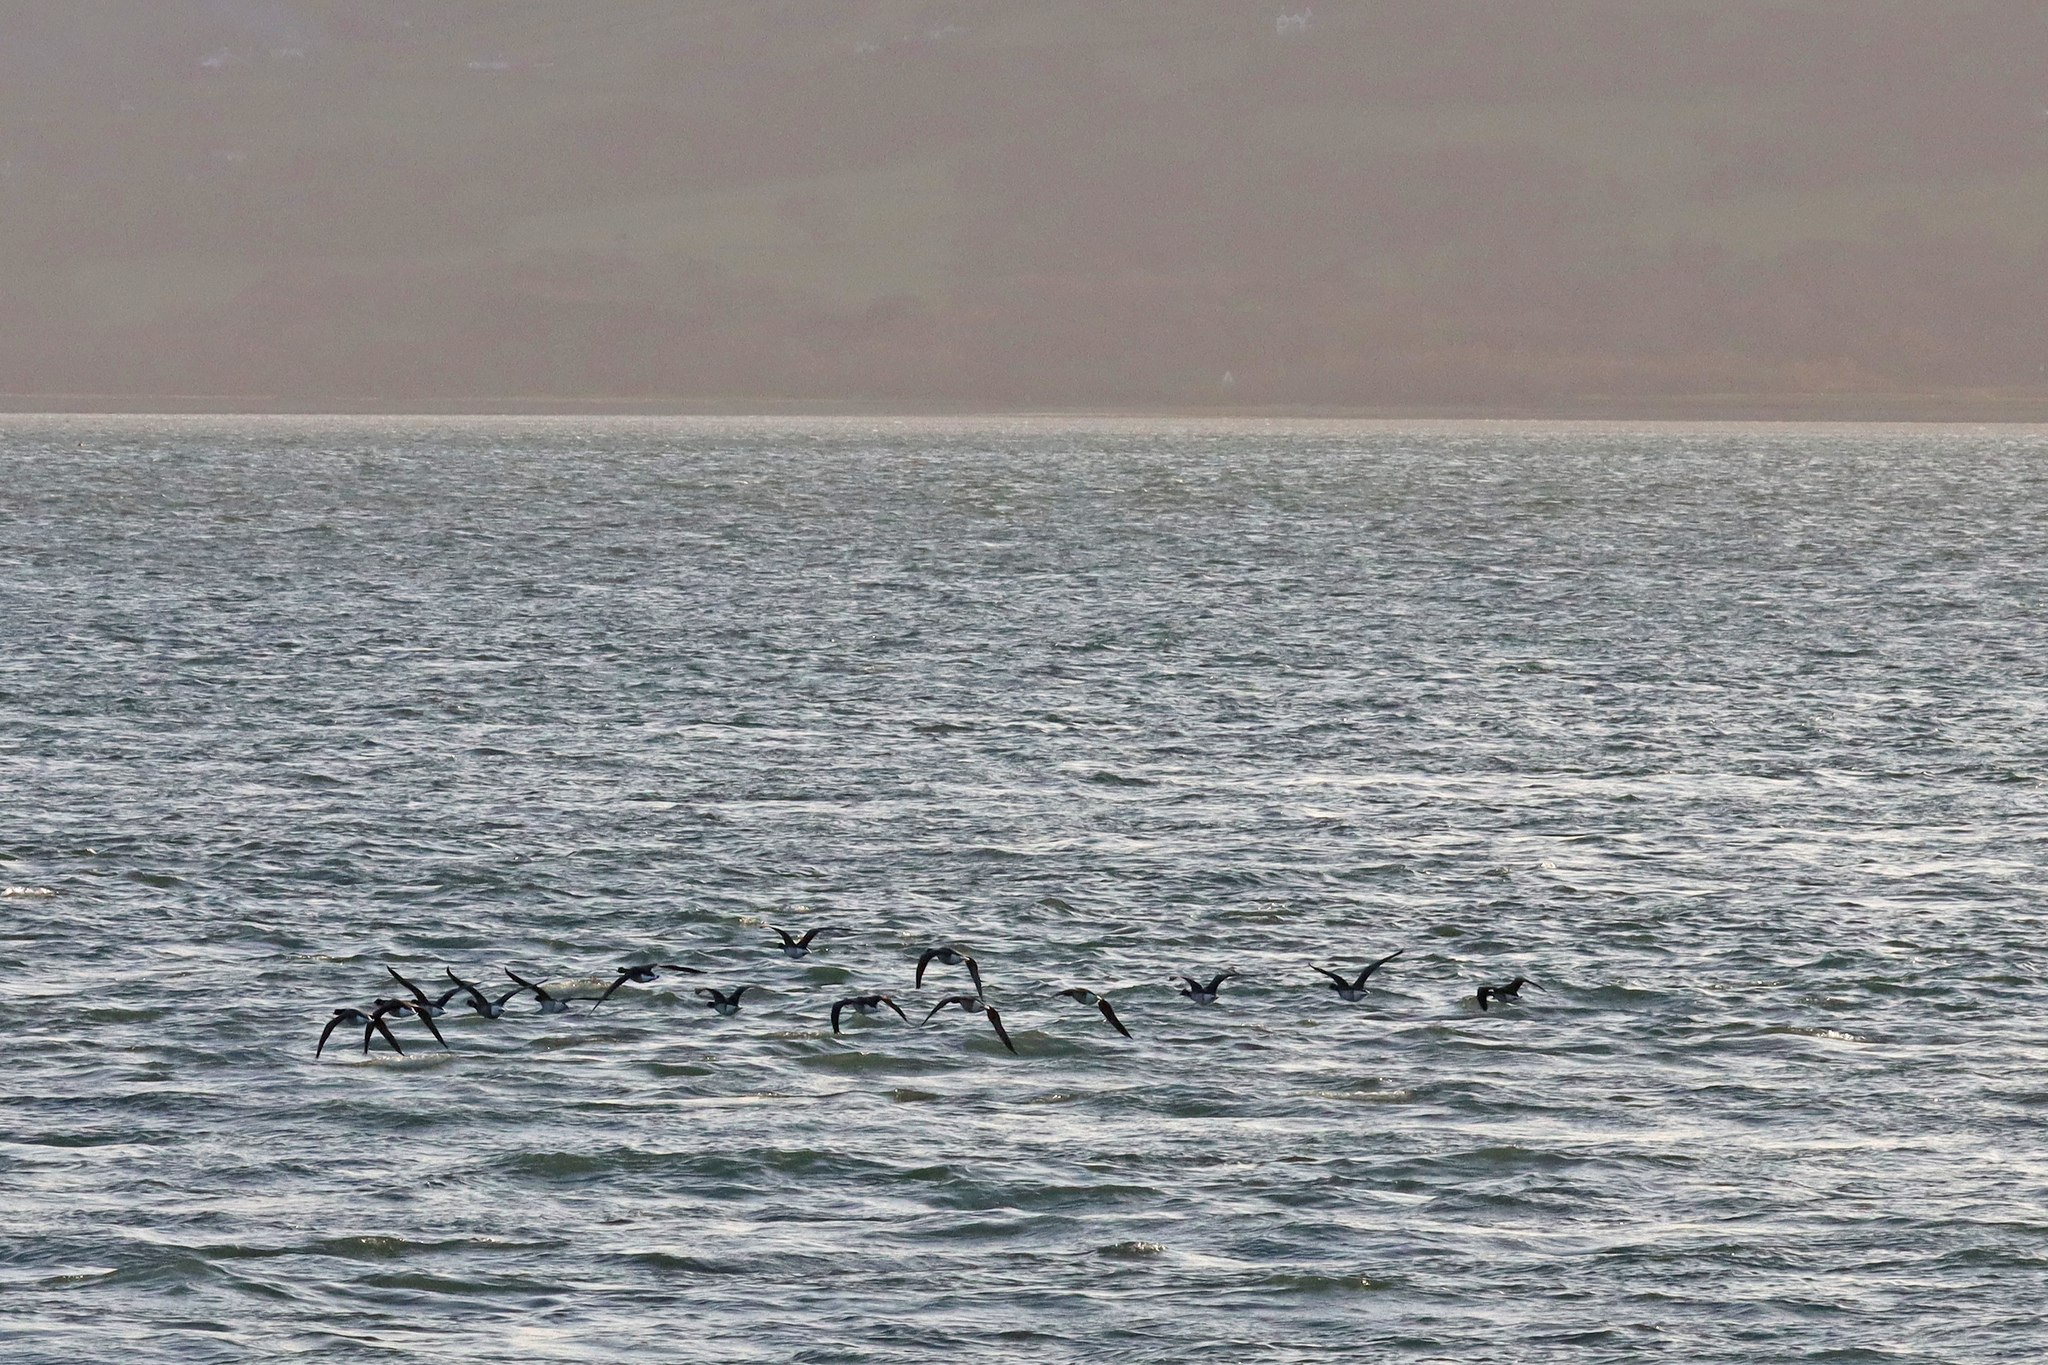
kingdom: Animalia
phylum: Chordata
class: Aves
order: Anseriformes
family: Anatidae
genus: Branta
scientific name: Branta bernicla
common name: Brant goose
